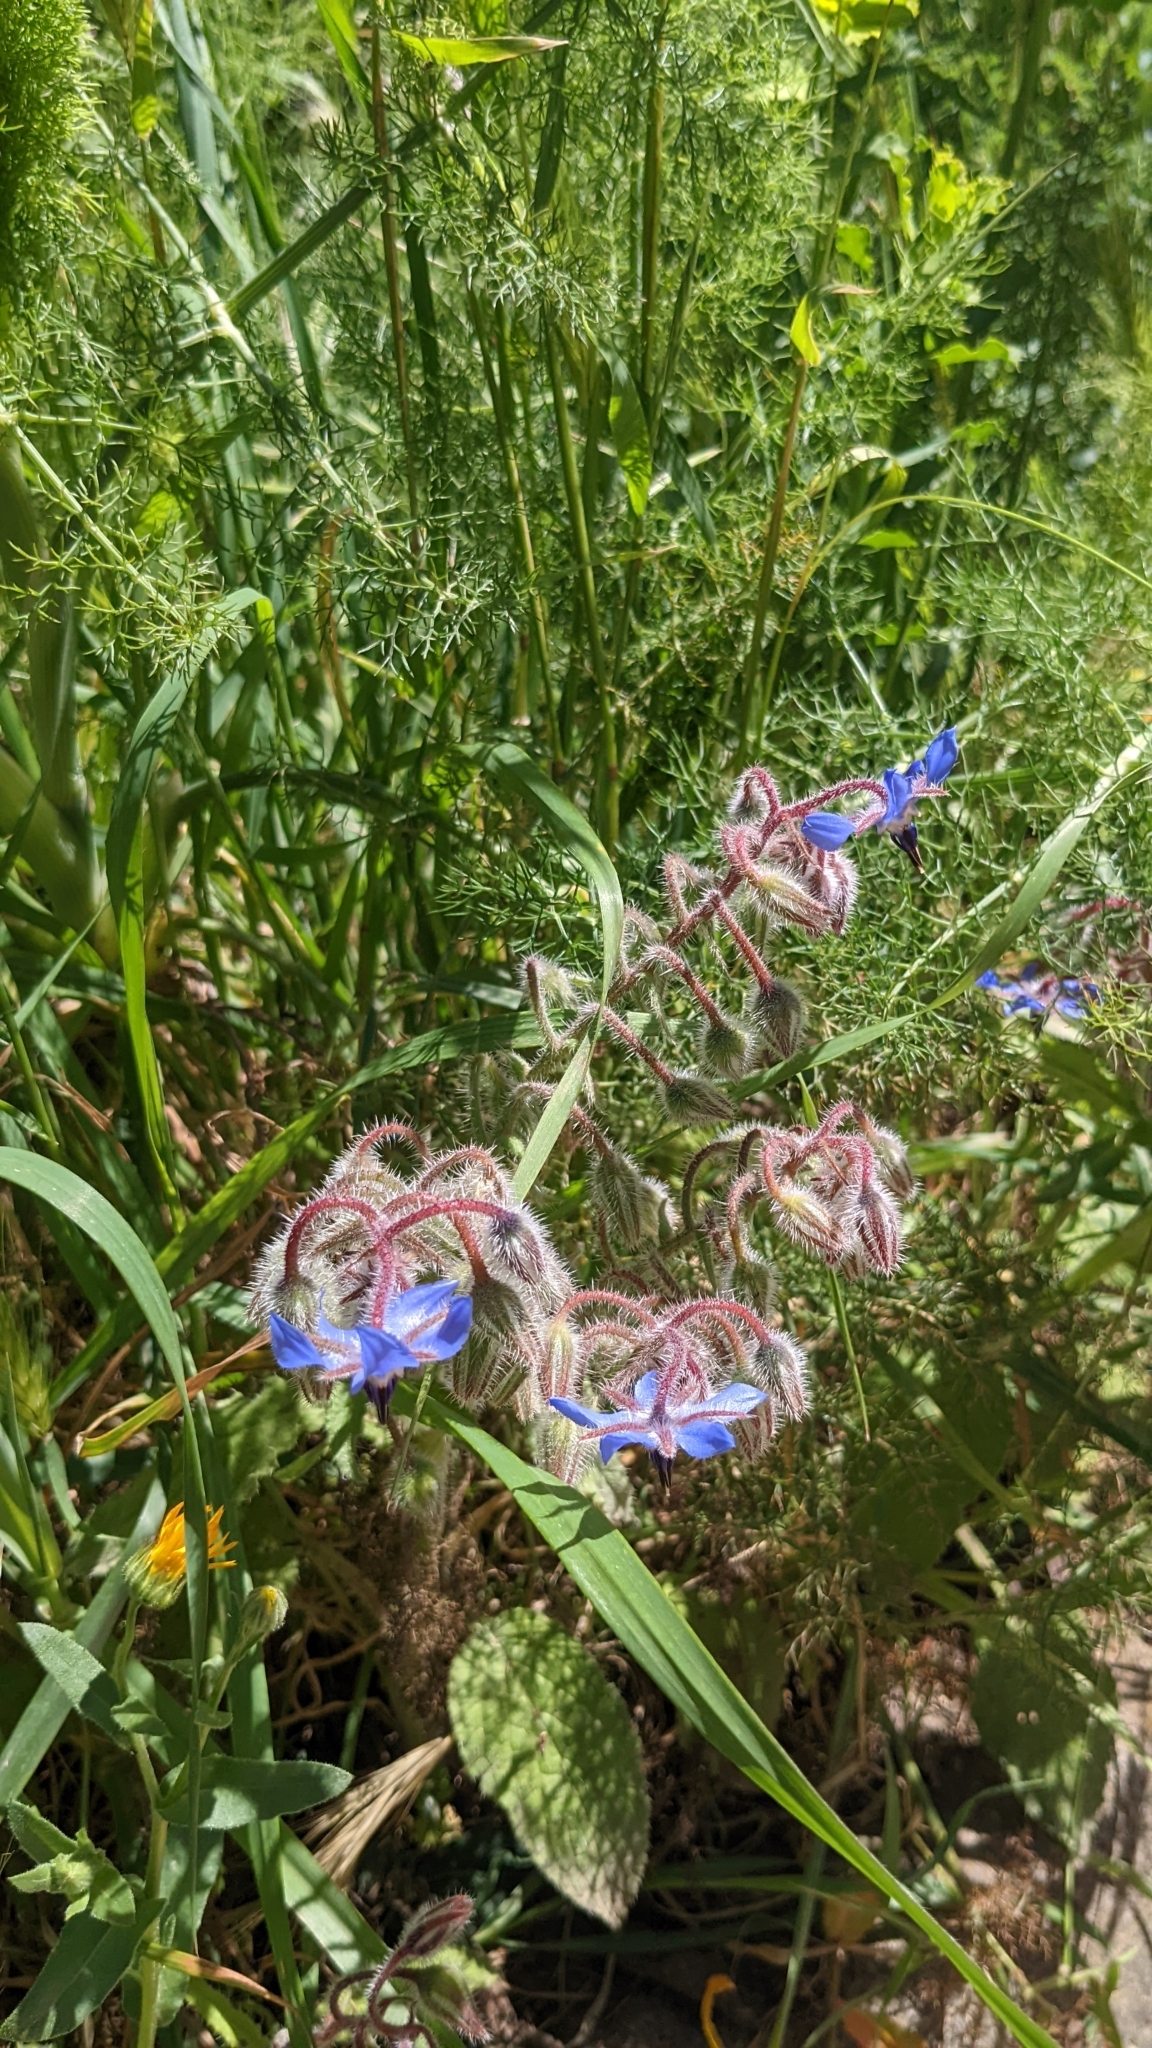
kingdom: Plantae
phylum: Tracheophyta
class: Magnoliopsida
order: Boraginales
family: Boraginaceae
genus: Borago
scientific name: Borago officinalis
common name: Borage
